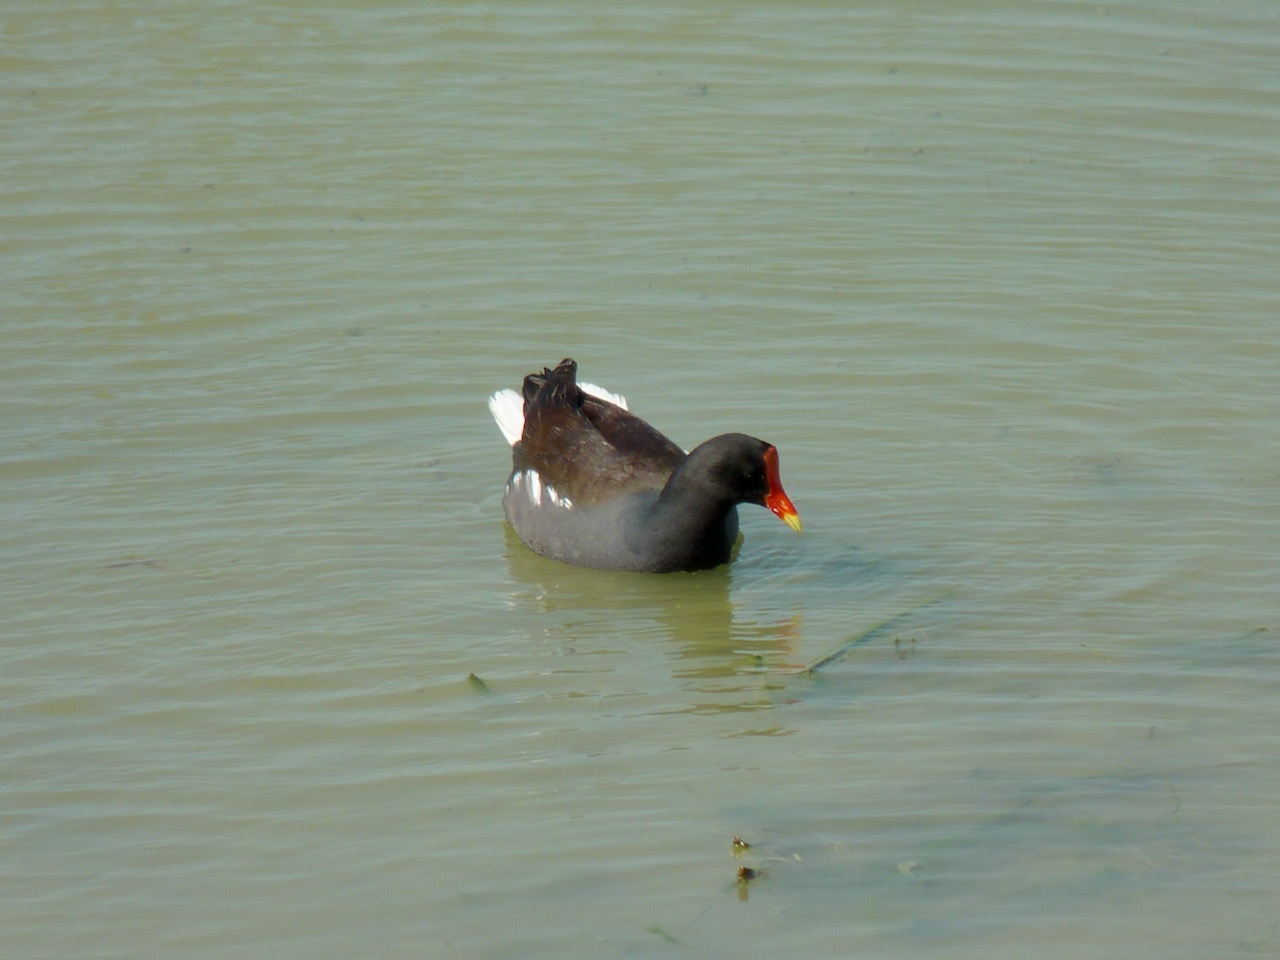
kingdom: Animalia
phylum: Chordata
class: Aves
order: Gruiformes
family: Rallidae
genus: Gallinula
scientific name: Gallinula chloropus
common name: Common moorhen
